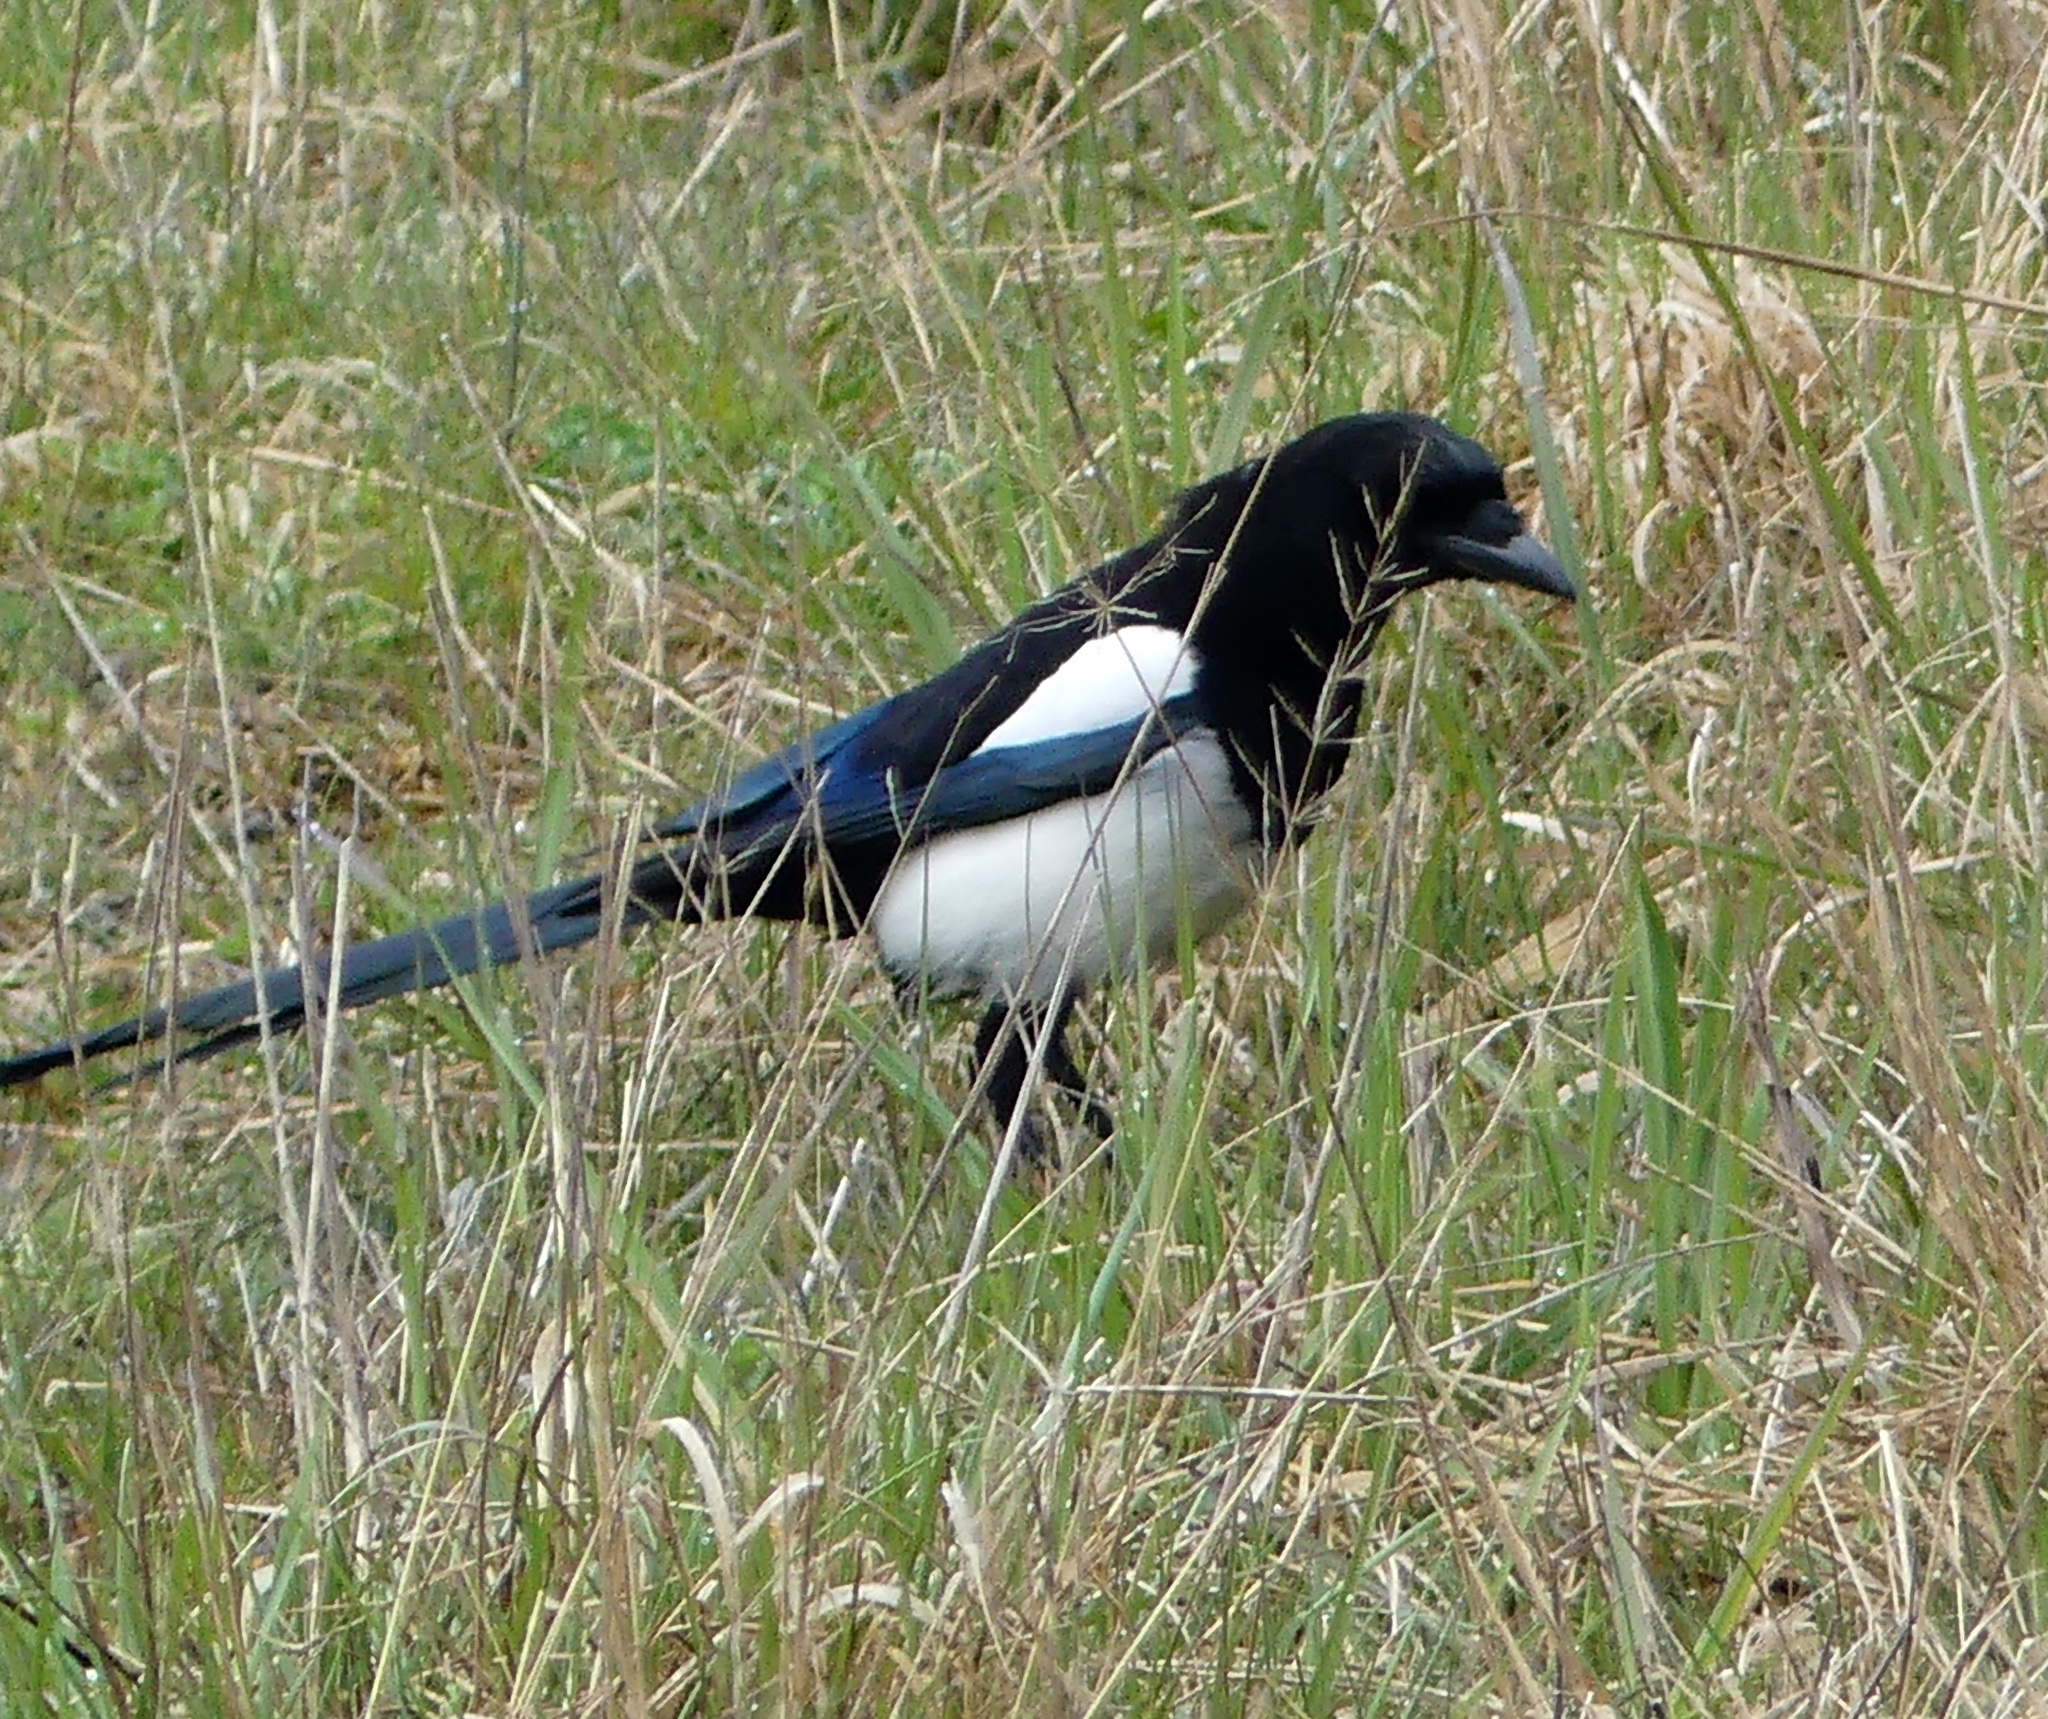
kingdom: Animalia
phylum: Chordata
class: Aves
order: Passeriformes
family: Corvidae
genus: Pica
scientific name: Pica pica
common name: Eurasian magpie
